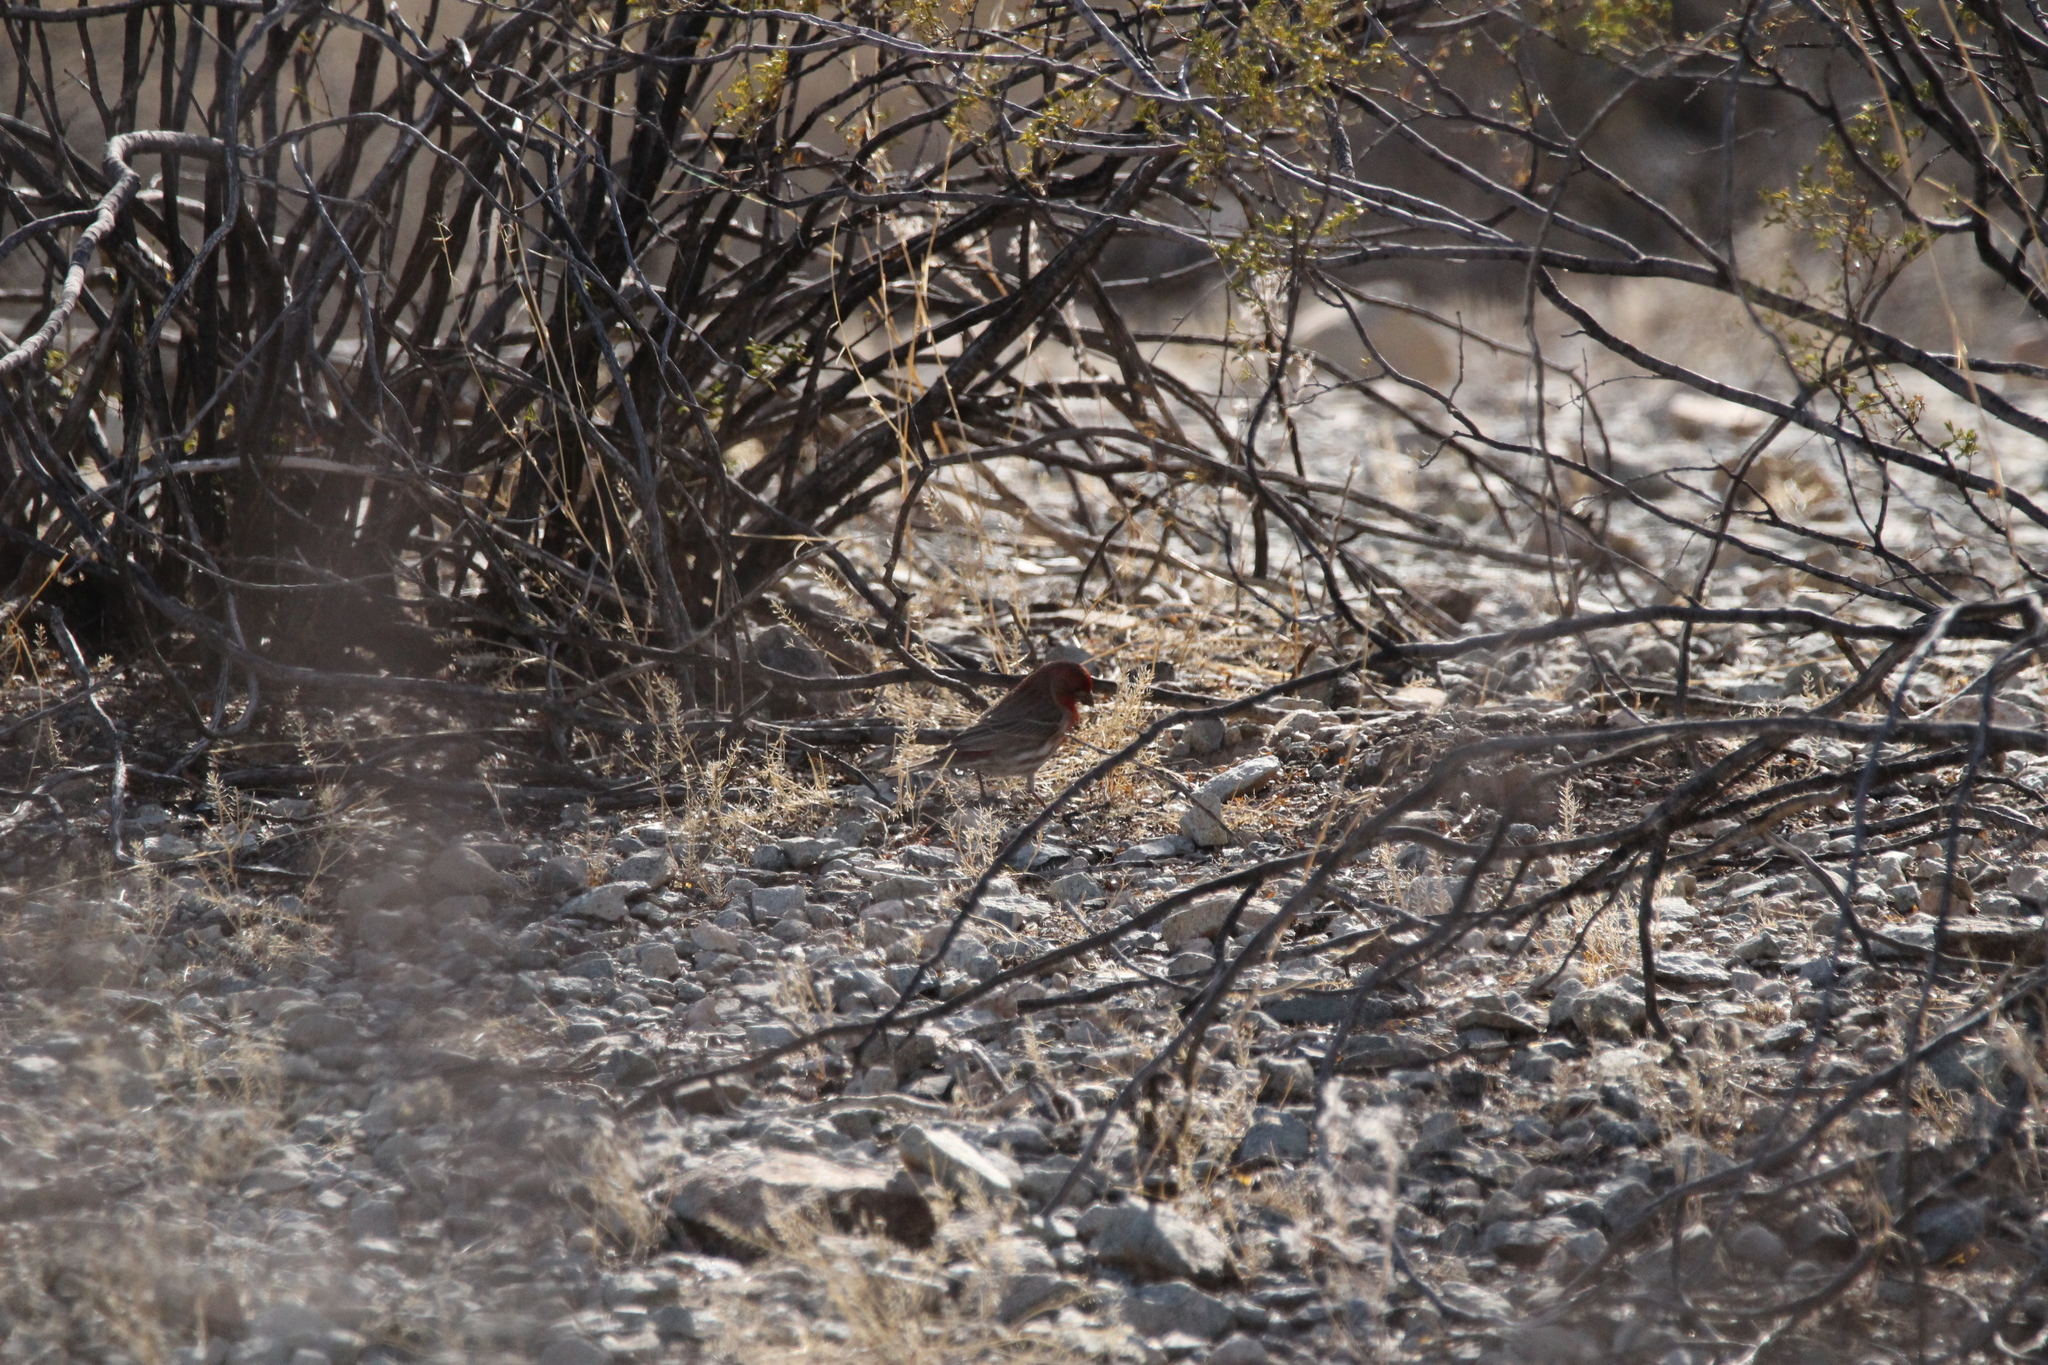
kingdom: Animalia
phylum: Chordata
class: Aves
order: Passeriformes
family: Fringillidae
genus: Haemorhous
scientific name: Haemorhous mexicanus
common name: House finch
